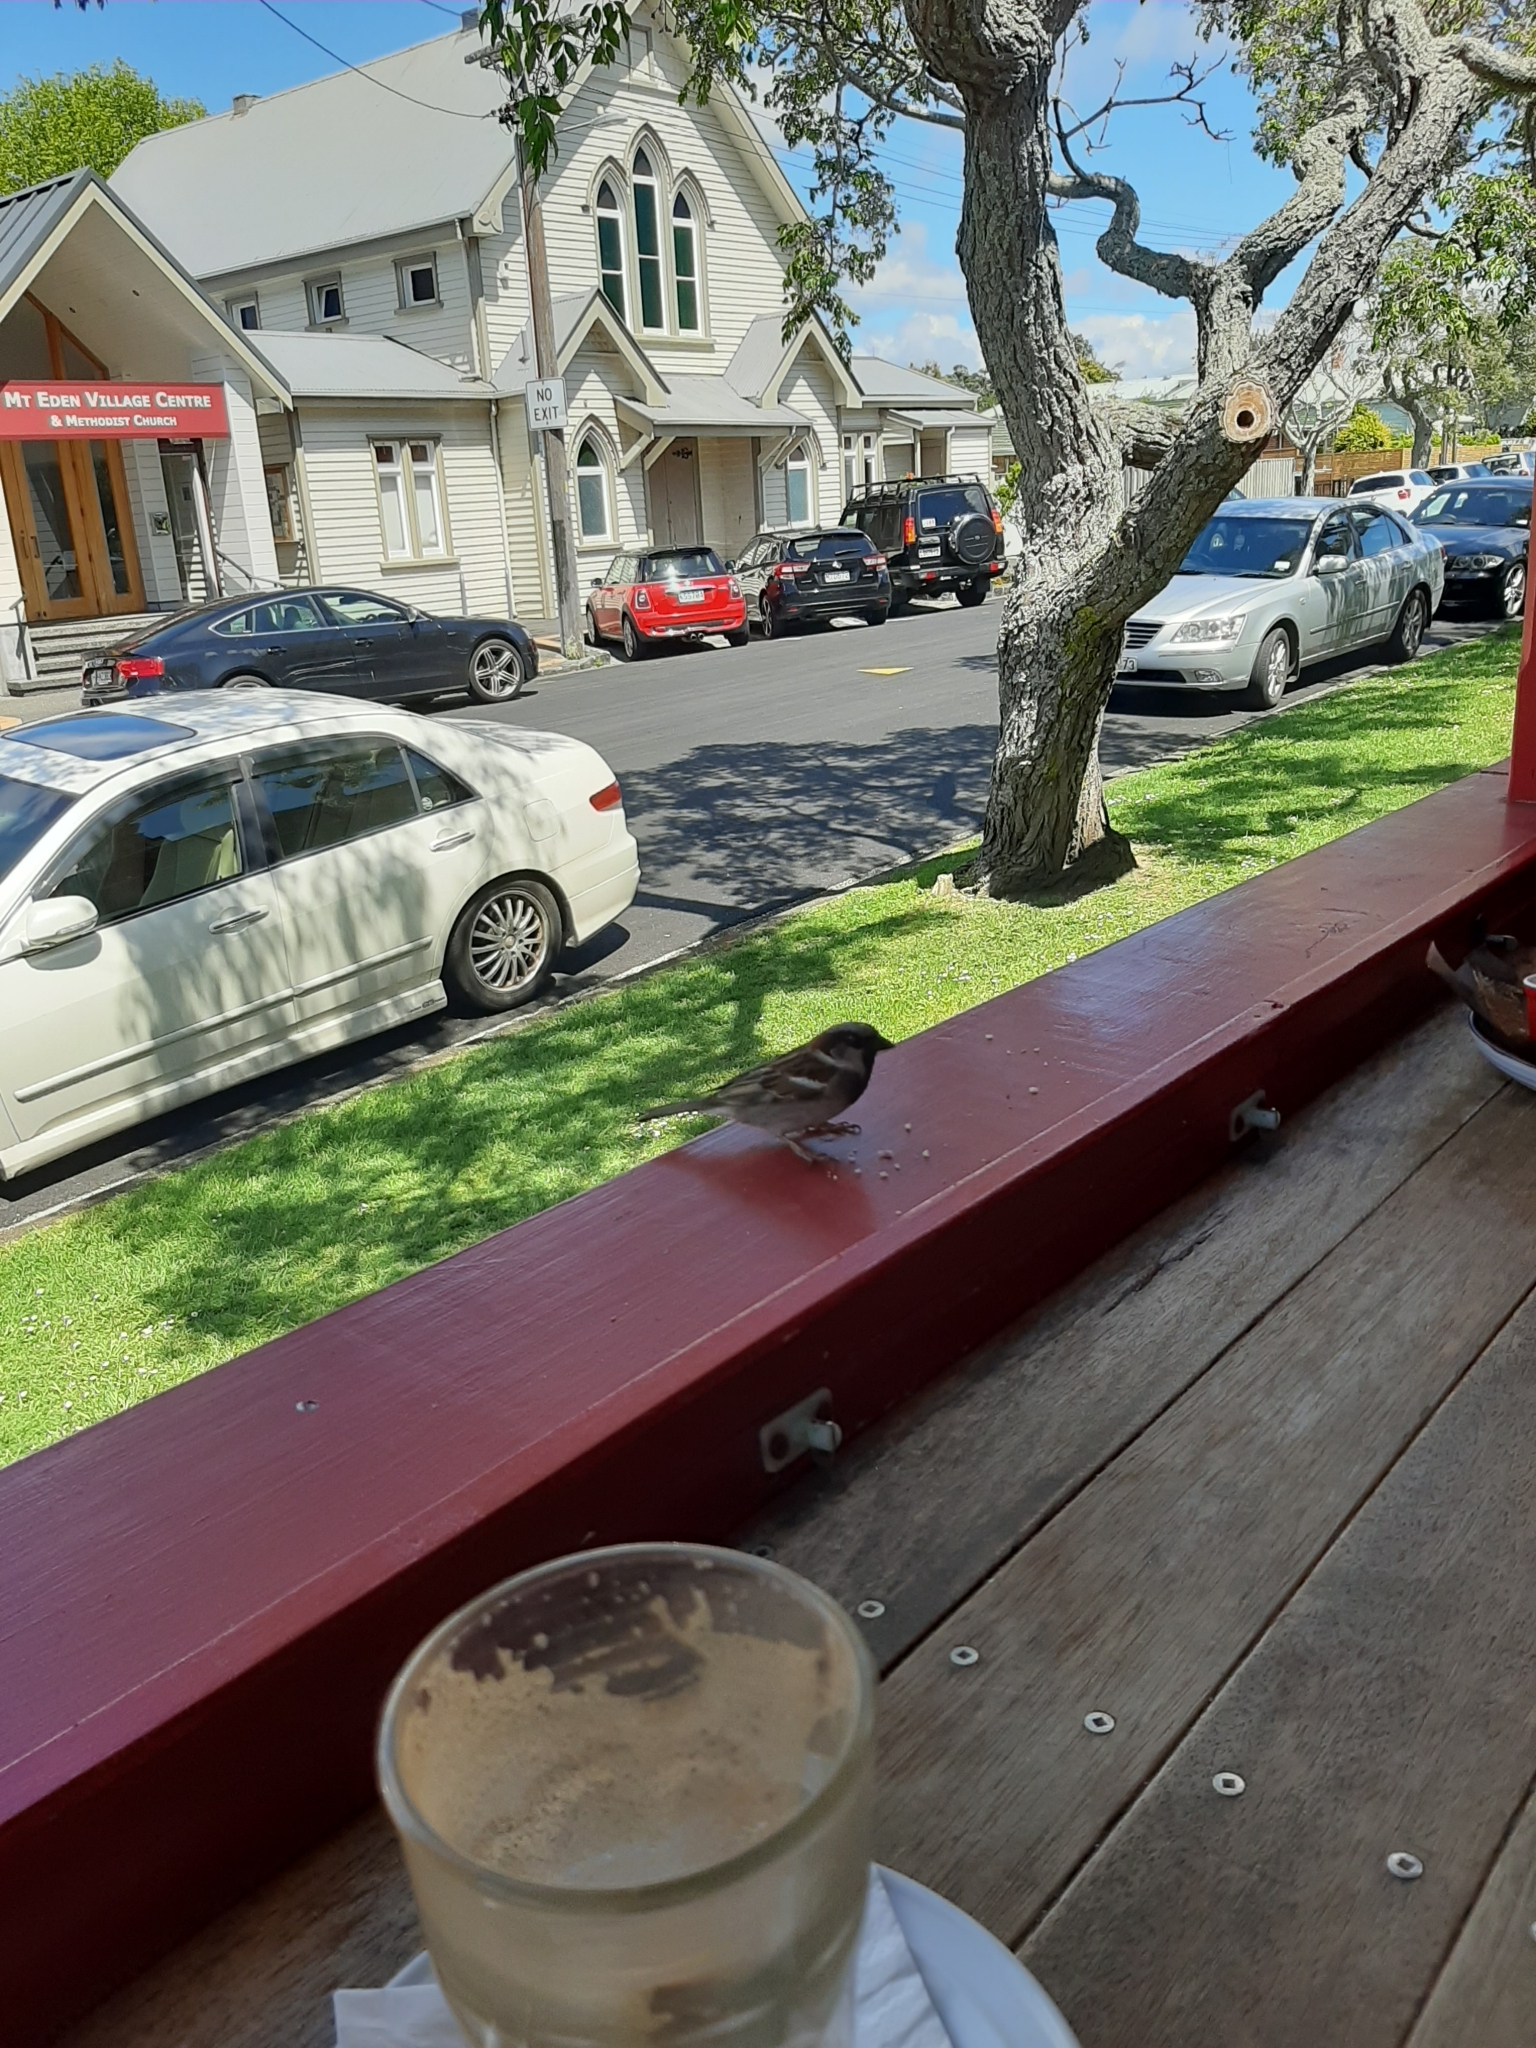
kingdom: Animalia
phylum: Chordata
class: Aves
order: Passeriformes
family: Passeridae
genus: Passer
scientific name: Passer domesticus
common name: House sparrow
